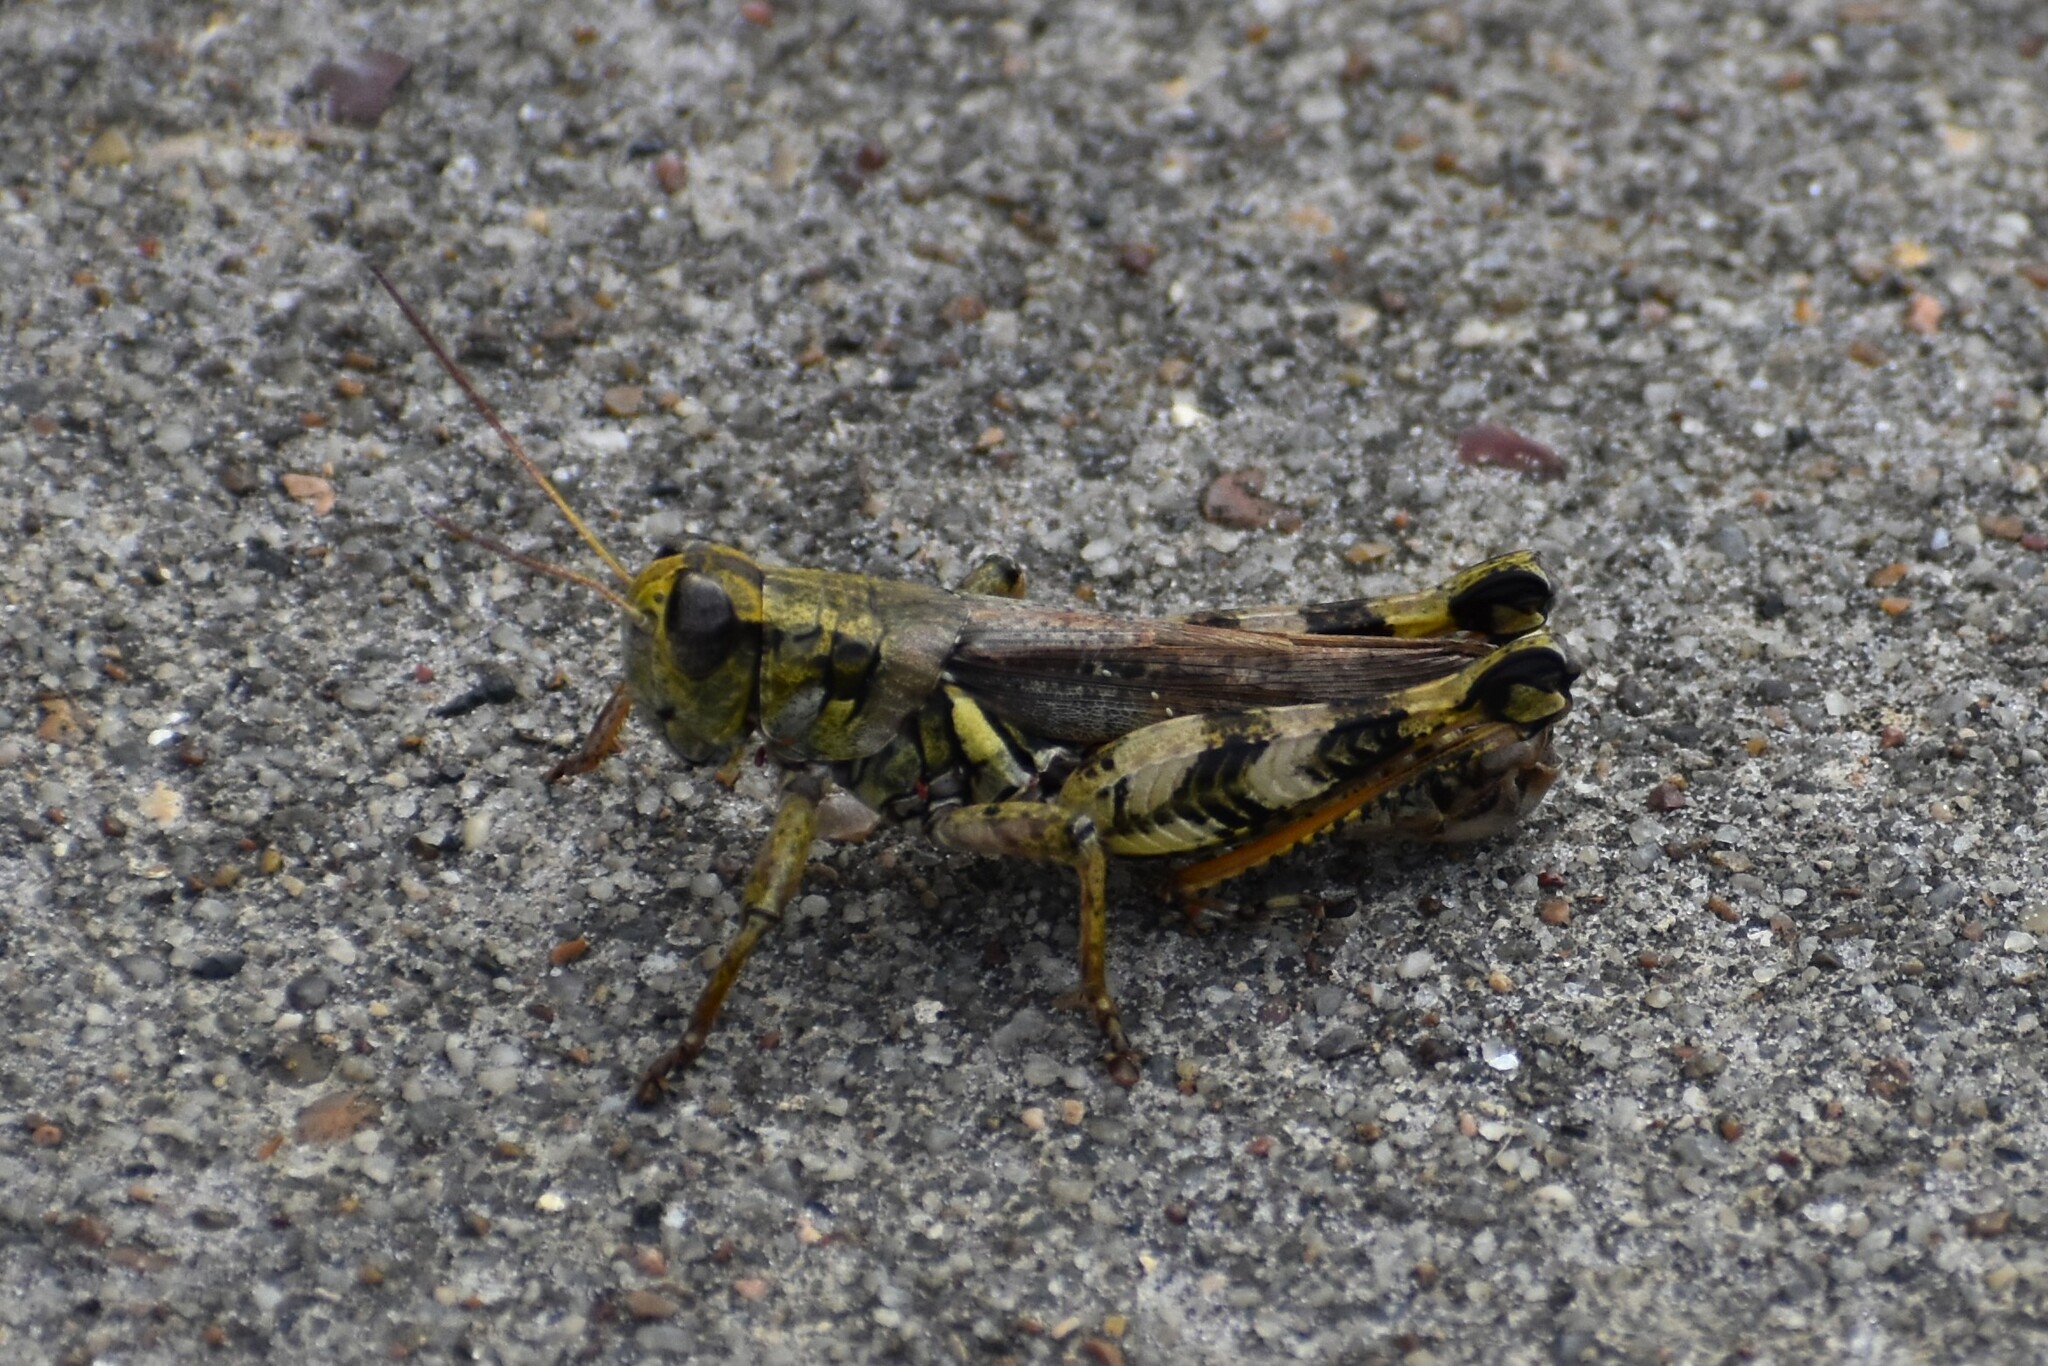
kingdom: Animalia
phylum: Arthropoda
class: Insecta
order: Orthoptera
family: Acrididae
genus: Melanoplus
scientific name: Melanoplus ponderosus
